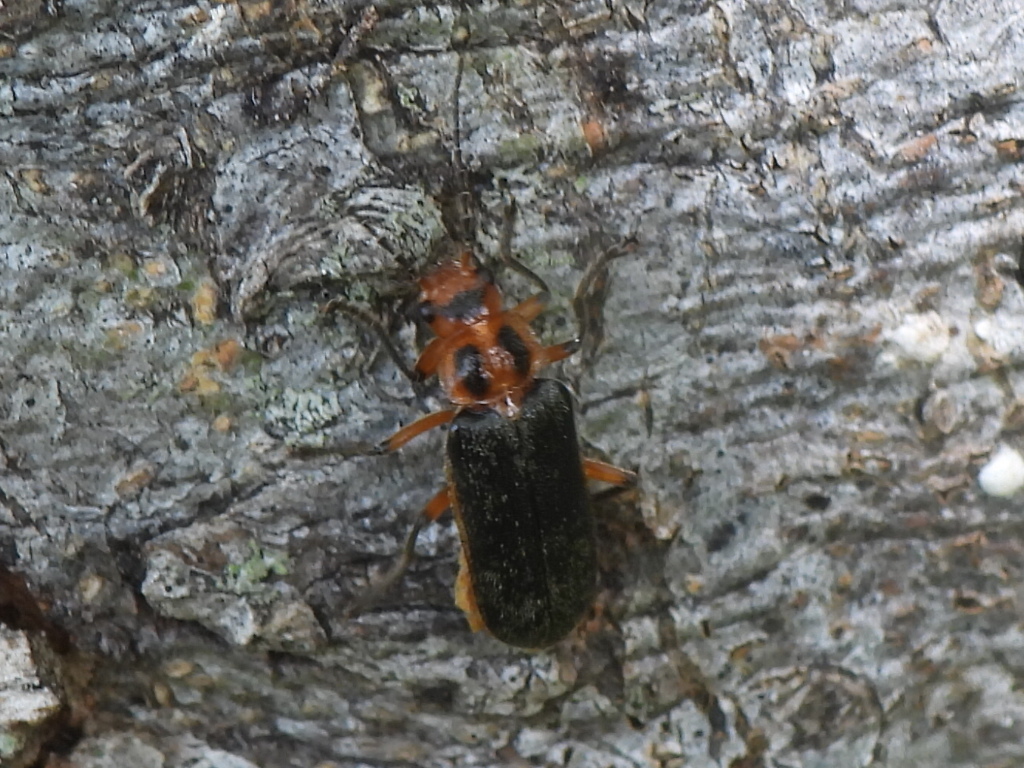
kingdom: Animalia
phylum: Arthropoda
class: Insecta
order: Coleoptera
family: Cantharidae
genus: Atalantycha
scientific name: Atalantycha bilineata
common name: Two-lined leatherwing
